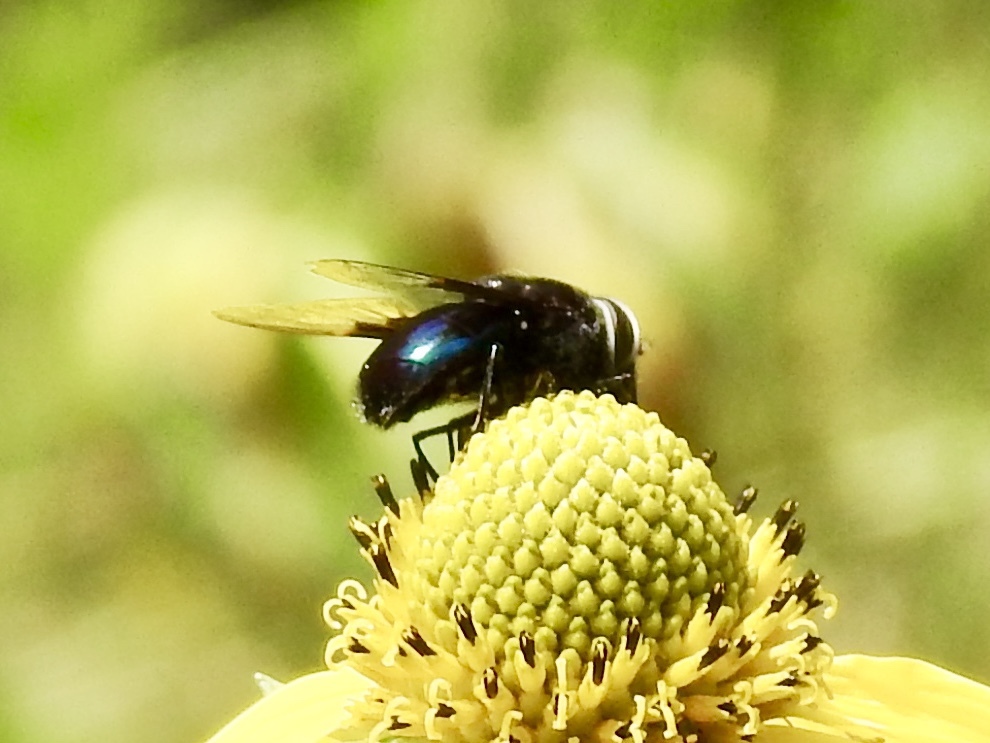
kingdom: Animalia
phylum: Arthropoda
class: Insecta
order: Diptera
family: Syrphidae
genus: Copestylum
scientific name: Copestylum
